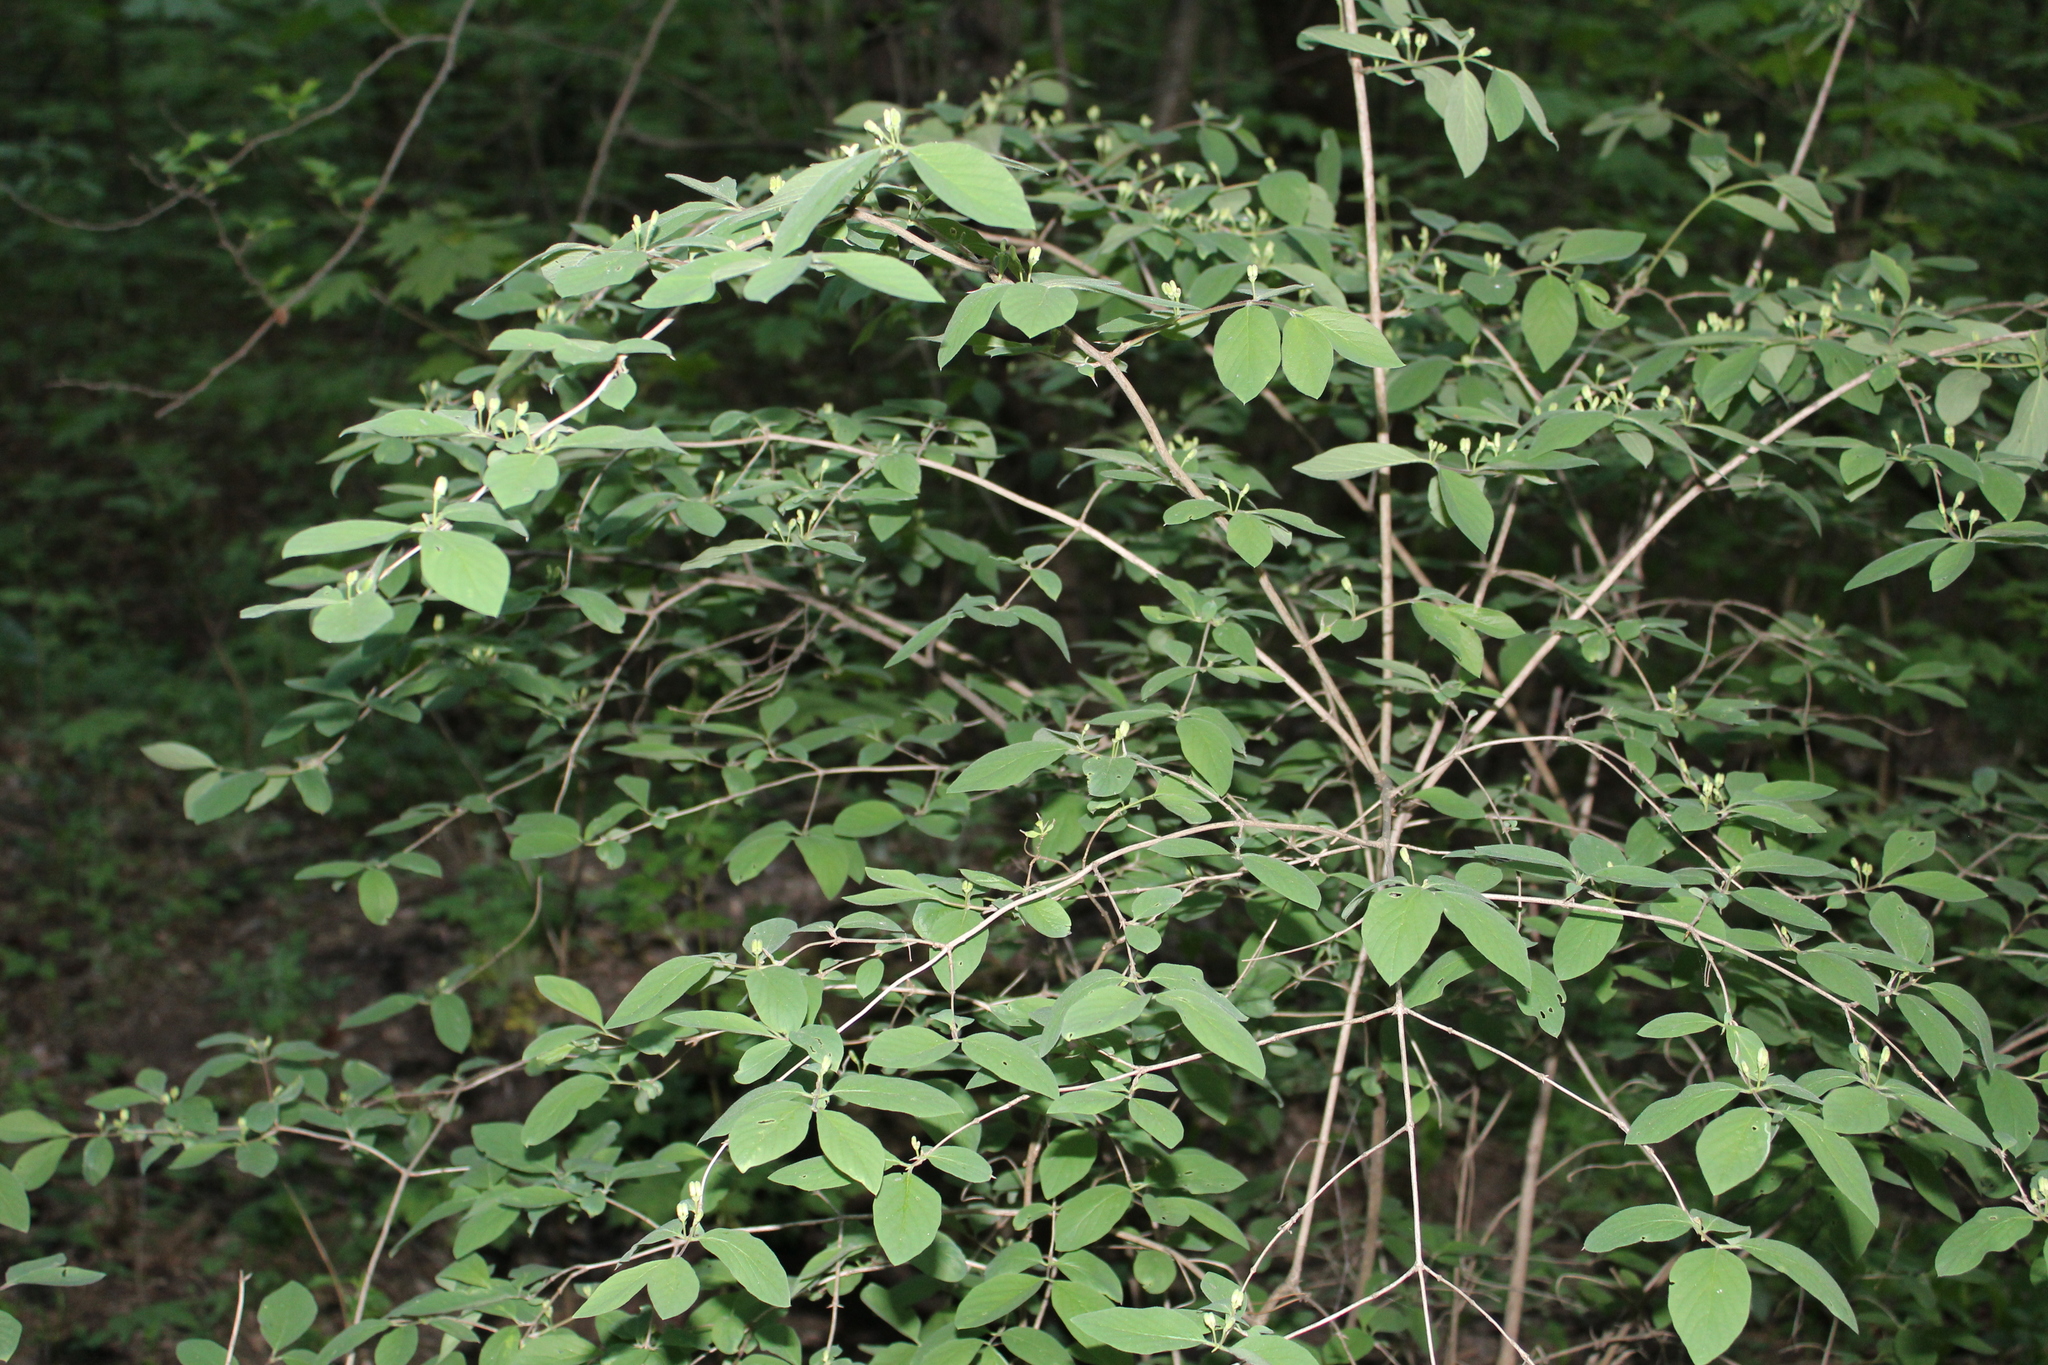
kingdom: Plantae
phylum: Tracheophyta
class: Magnoliopsida
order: Dipsacales
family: Caprifoliaceae
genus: Lonicera
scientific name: Lonicera xylosteum
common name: Fly honeysuckle
